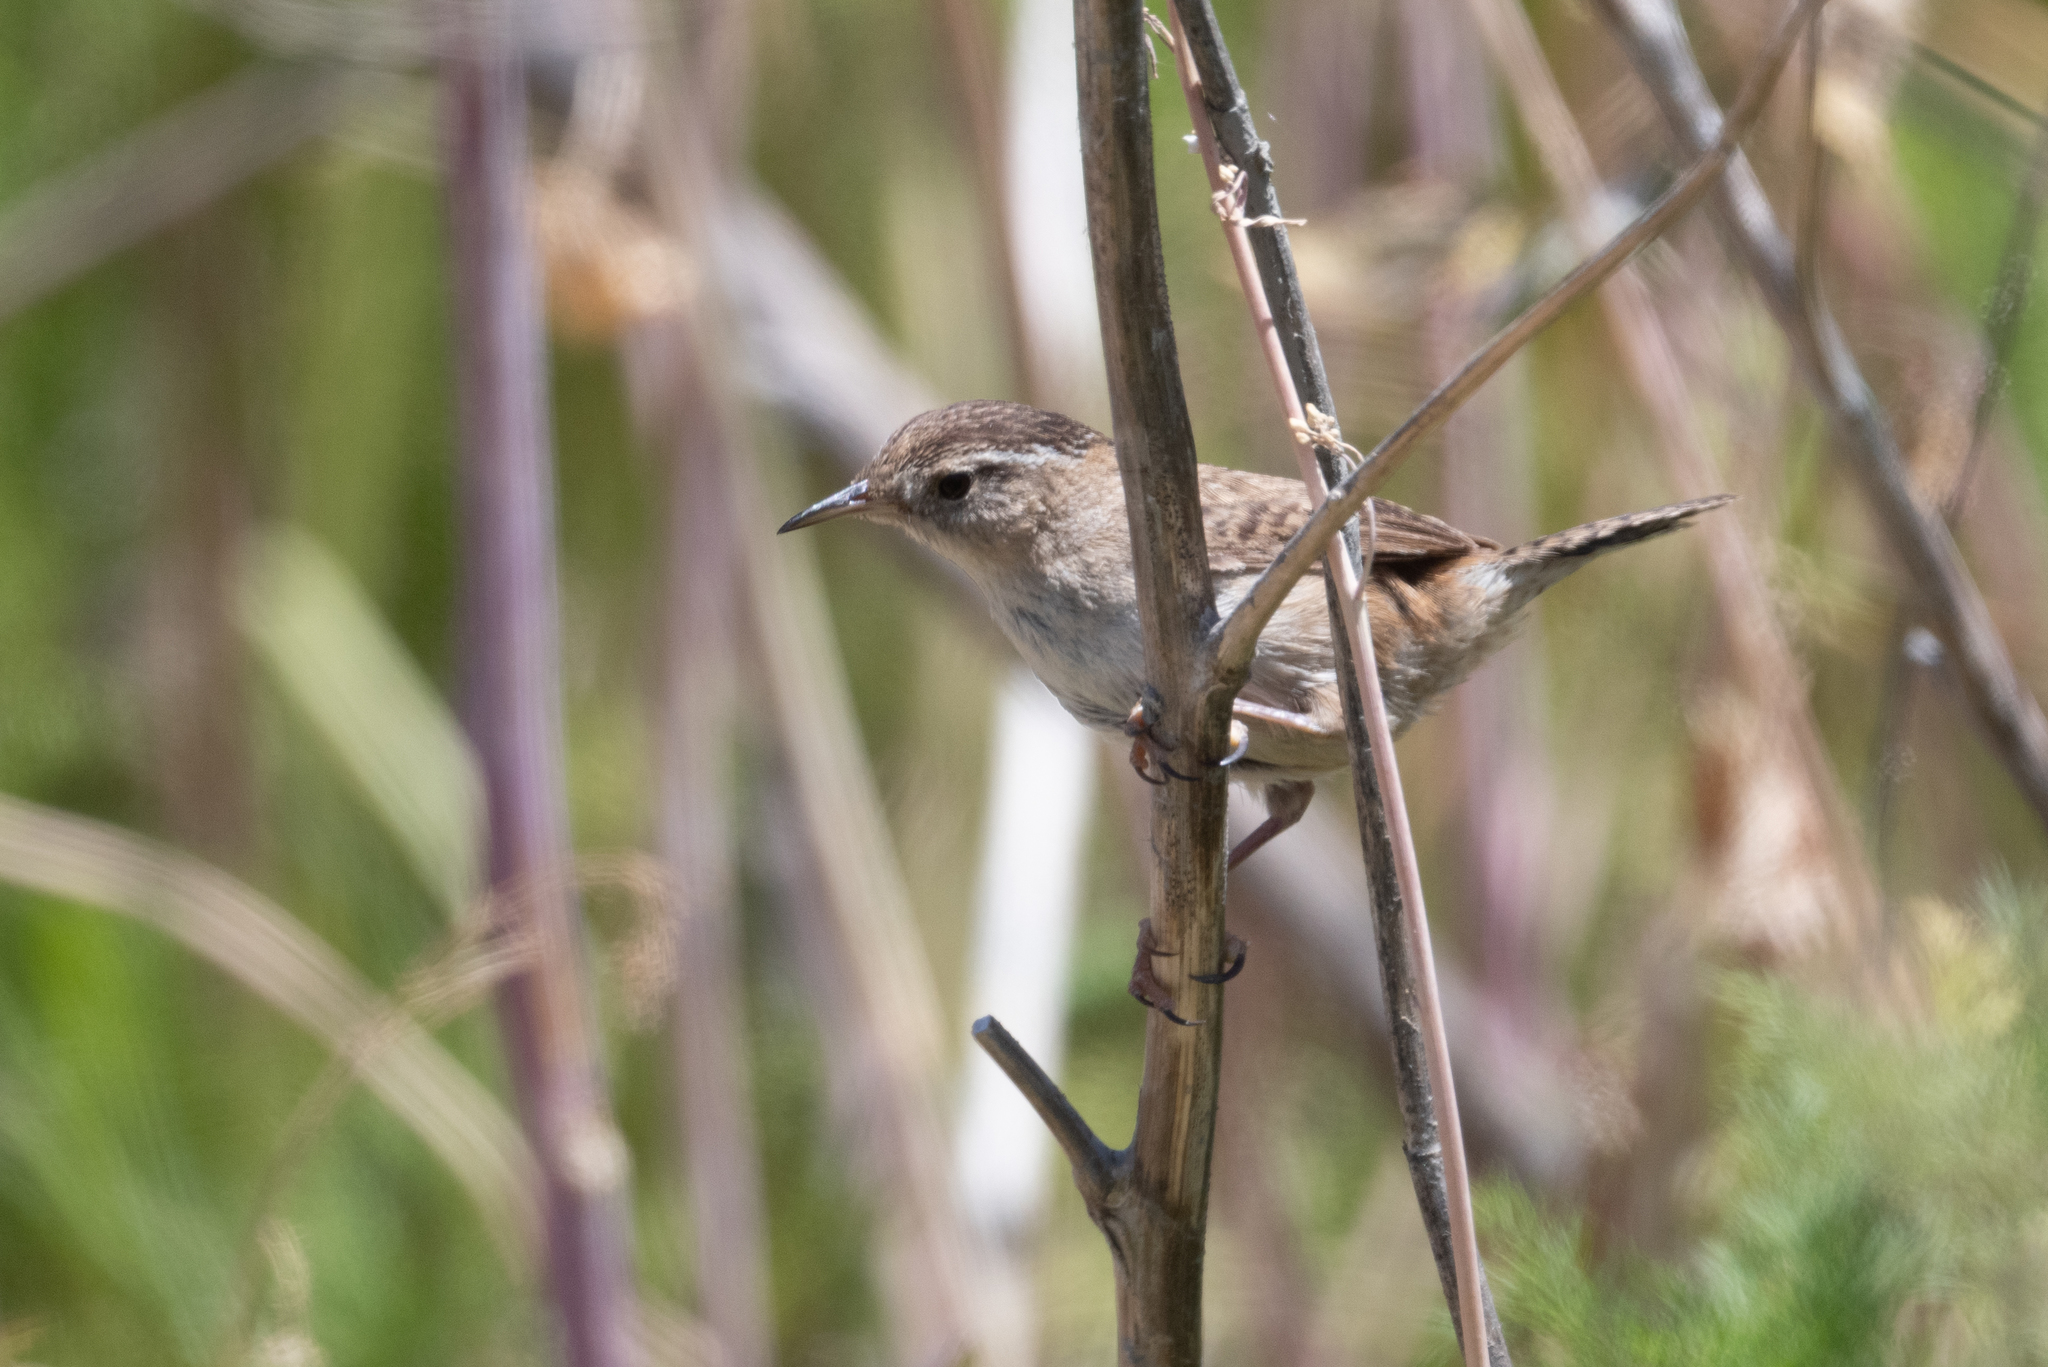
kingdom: Animalia
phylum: Chordata
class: Aves
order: Passeriformes
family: Troglodytidae
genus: Cistothorus
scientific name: Cistothorus palustris
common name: Marsh wren
